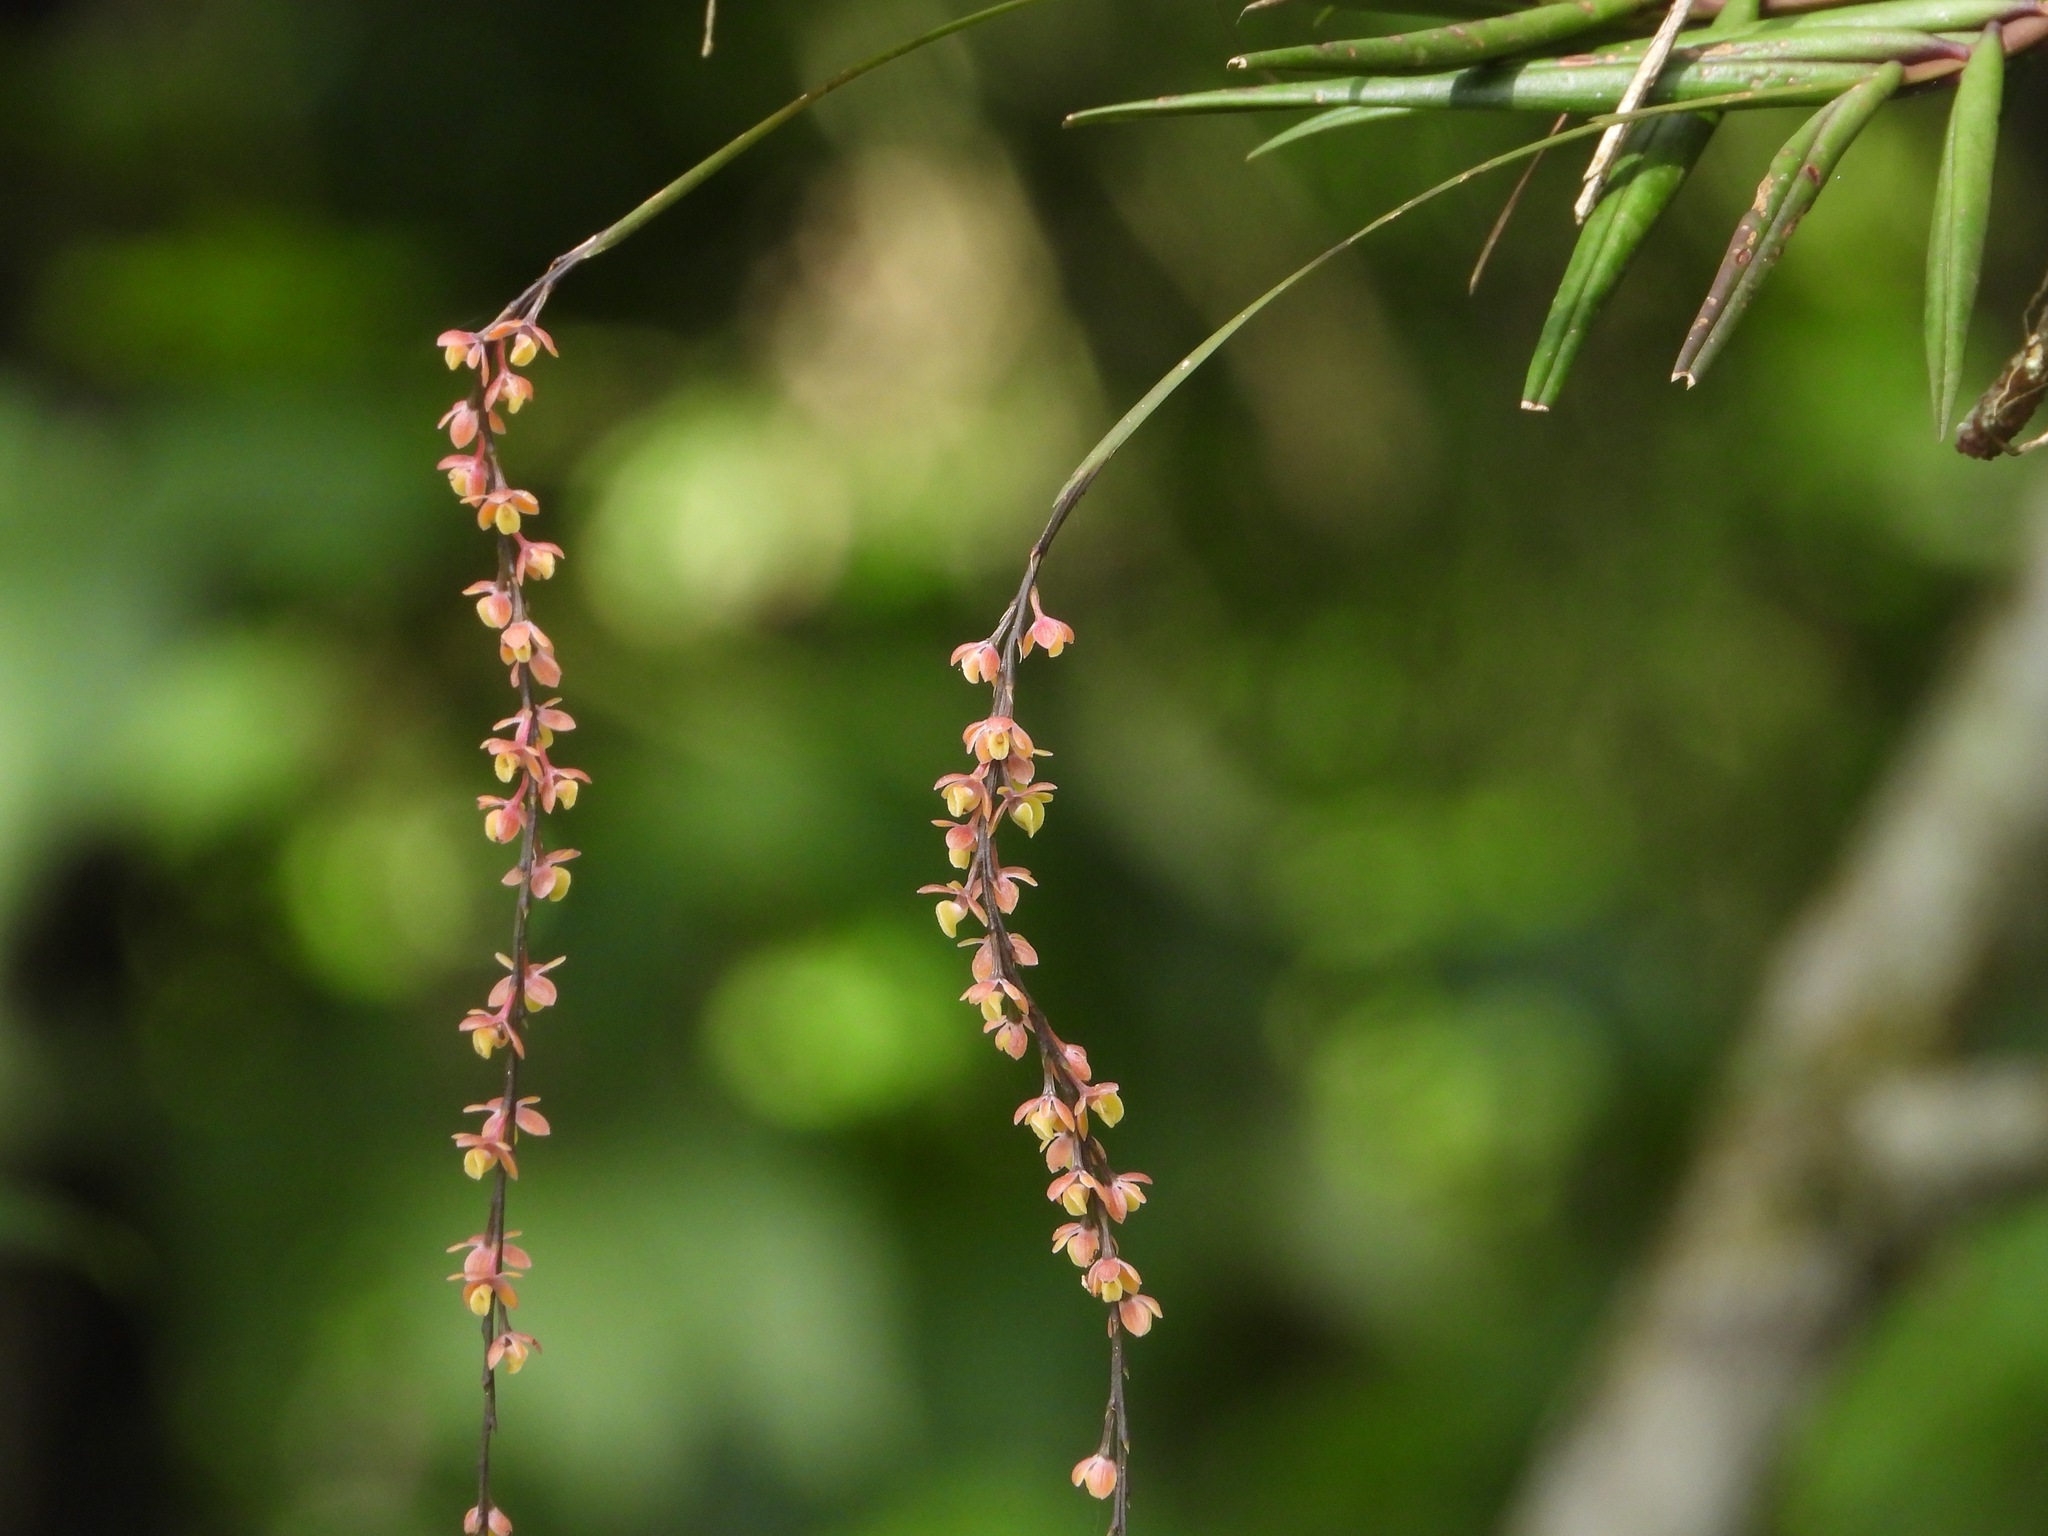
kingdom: Plantae
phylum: Tracheophyta
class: Liliopsida
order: Asparagales
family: Orchidaceae
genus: Epidendrum
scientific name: Epidendrum laucheanum
